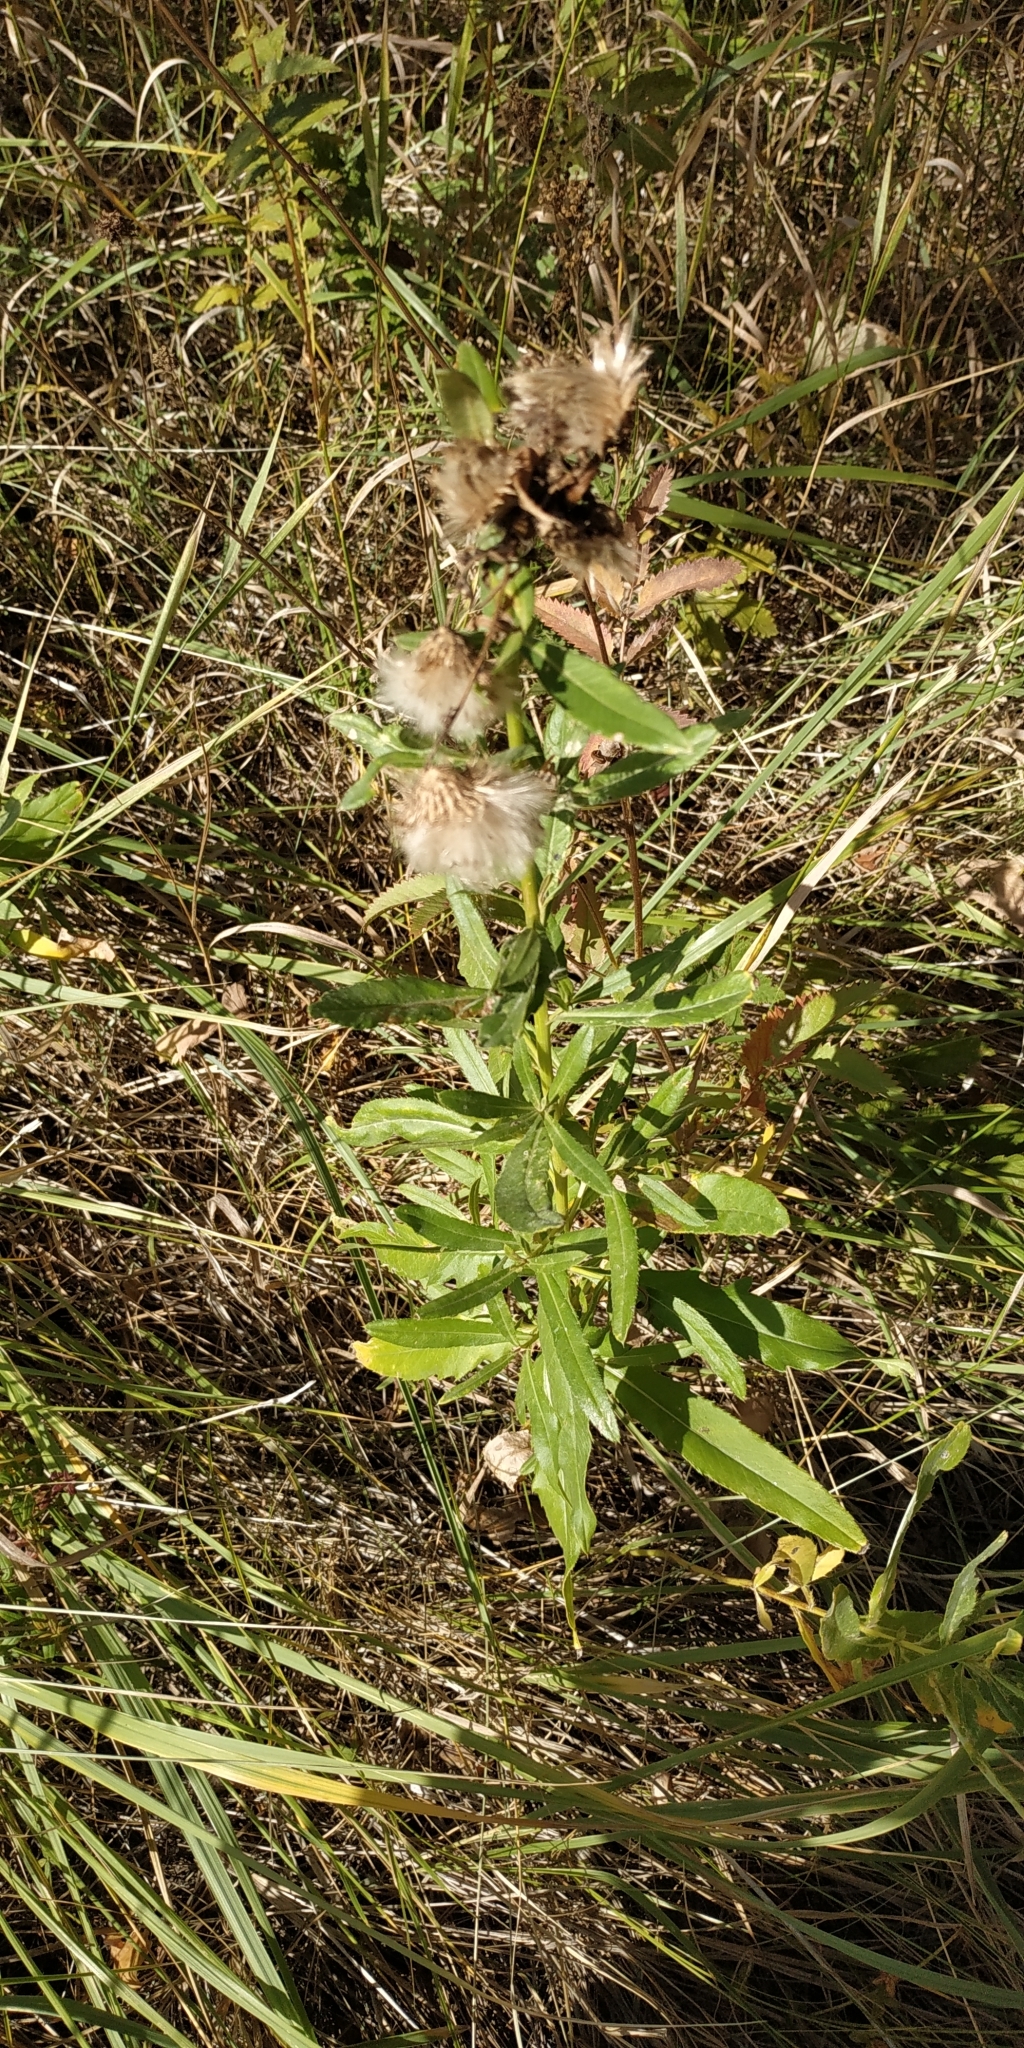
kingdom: Plantae
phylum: Tracheophyta
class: Magnoliopsida
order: Asterales
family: Asteraceae
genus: Cirsium
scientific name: Cirsium arvense
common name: Creeping thistle
